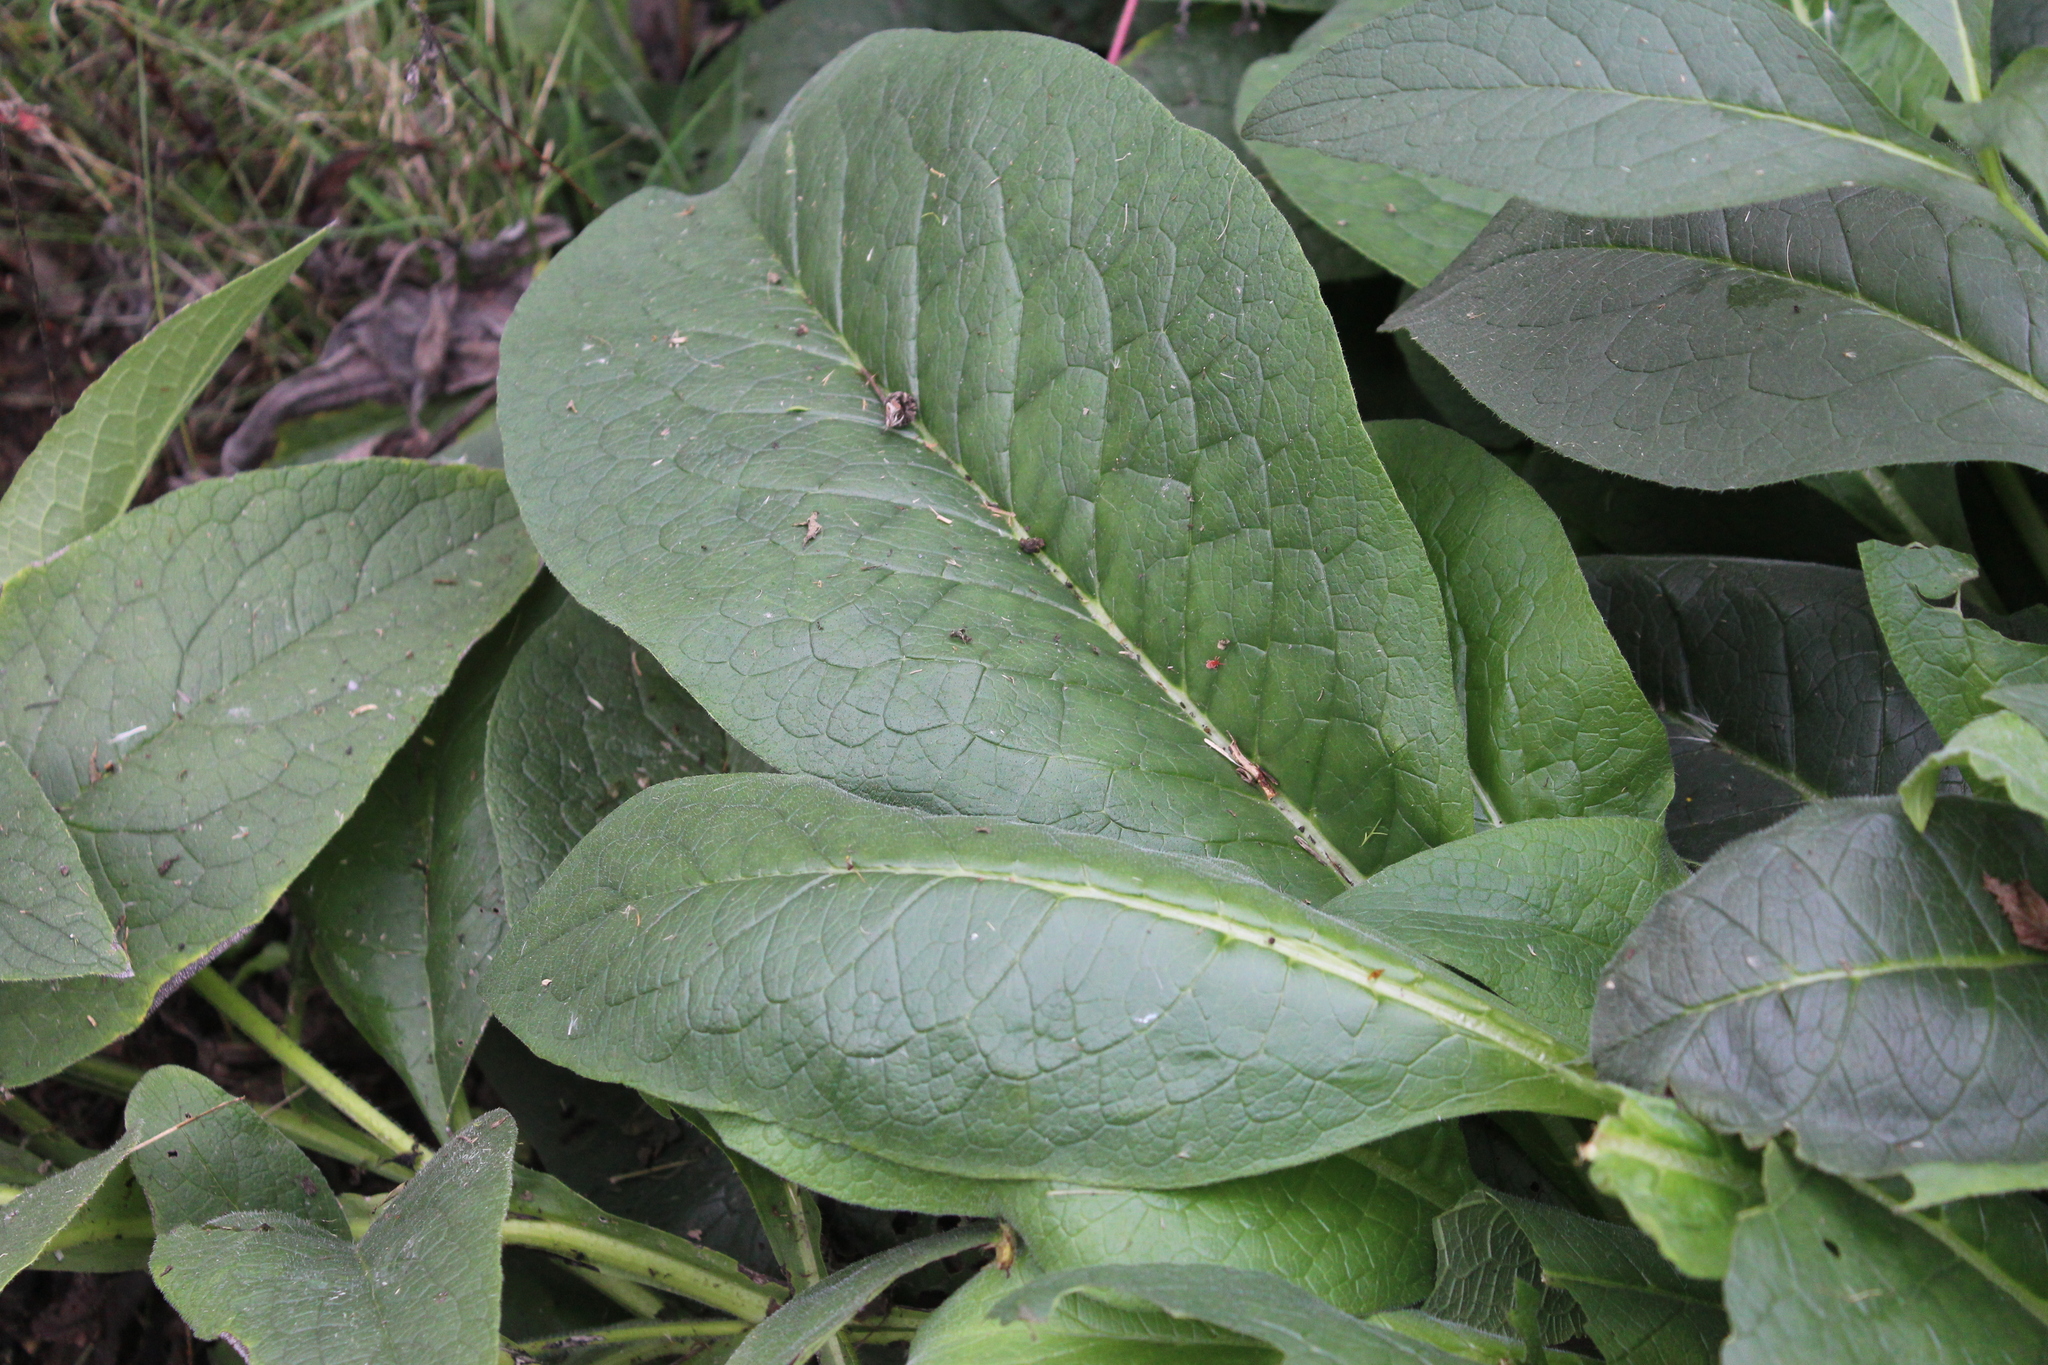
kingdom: Plantae
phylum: Tracheophyta
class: Magnoliopsida
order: Boraginales
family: Boraginaceae
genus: Symphytum
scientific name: Symphytum officinale
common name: Common comfrey
